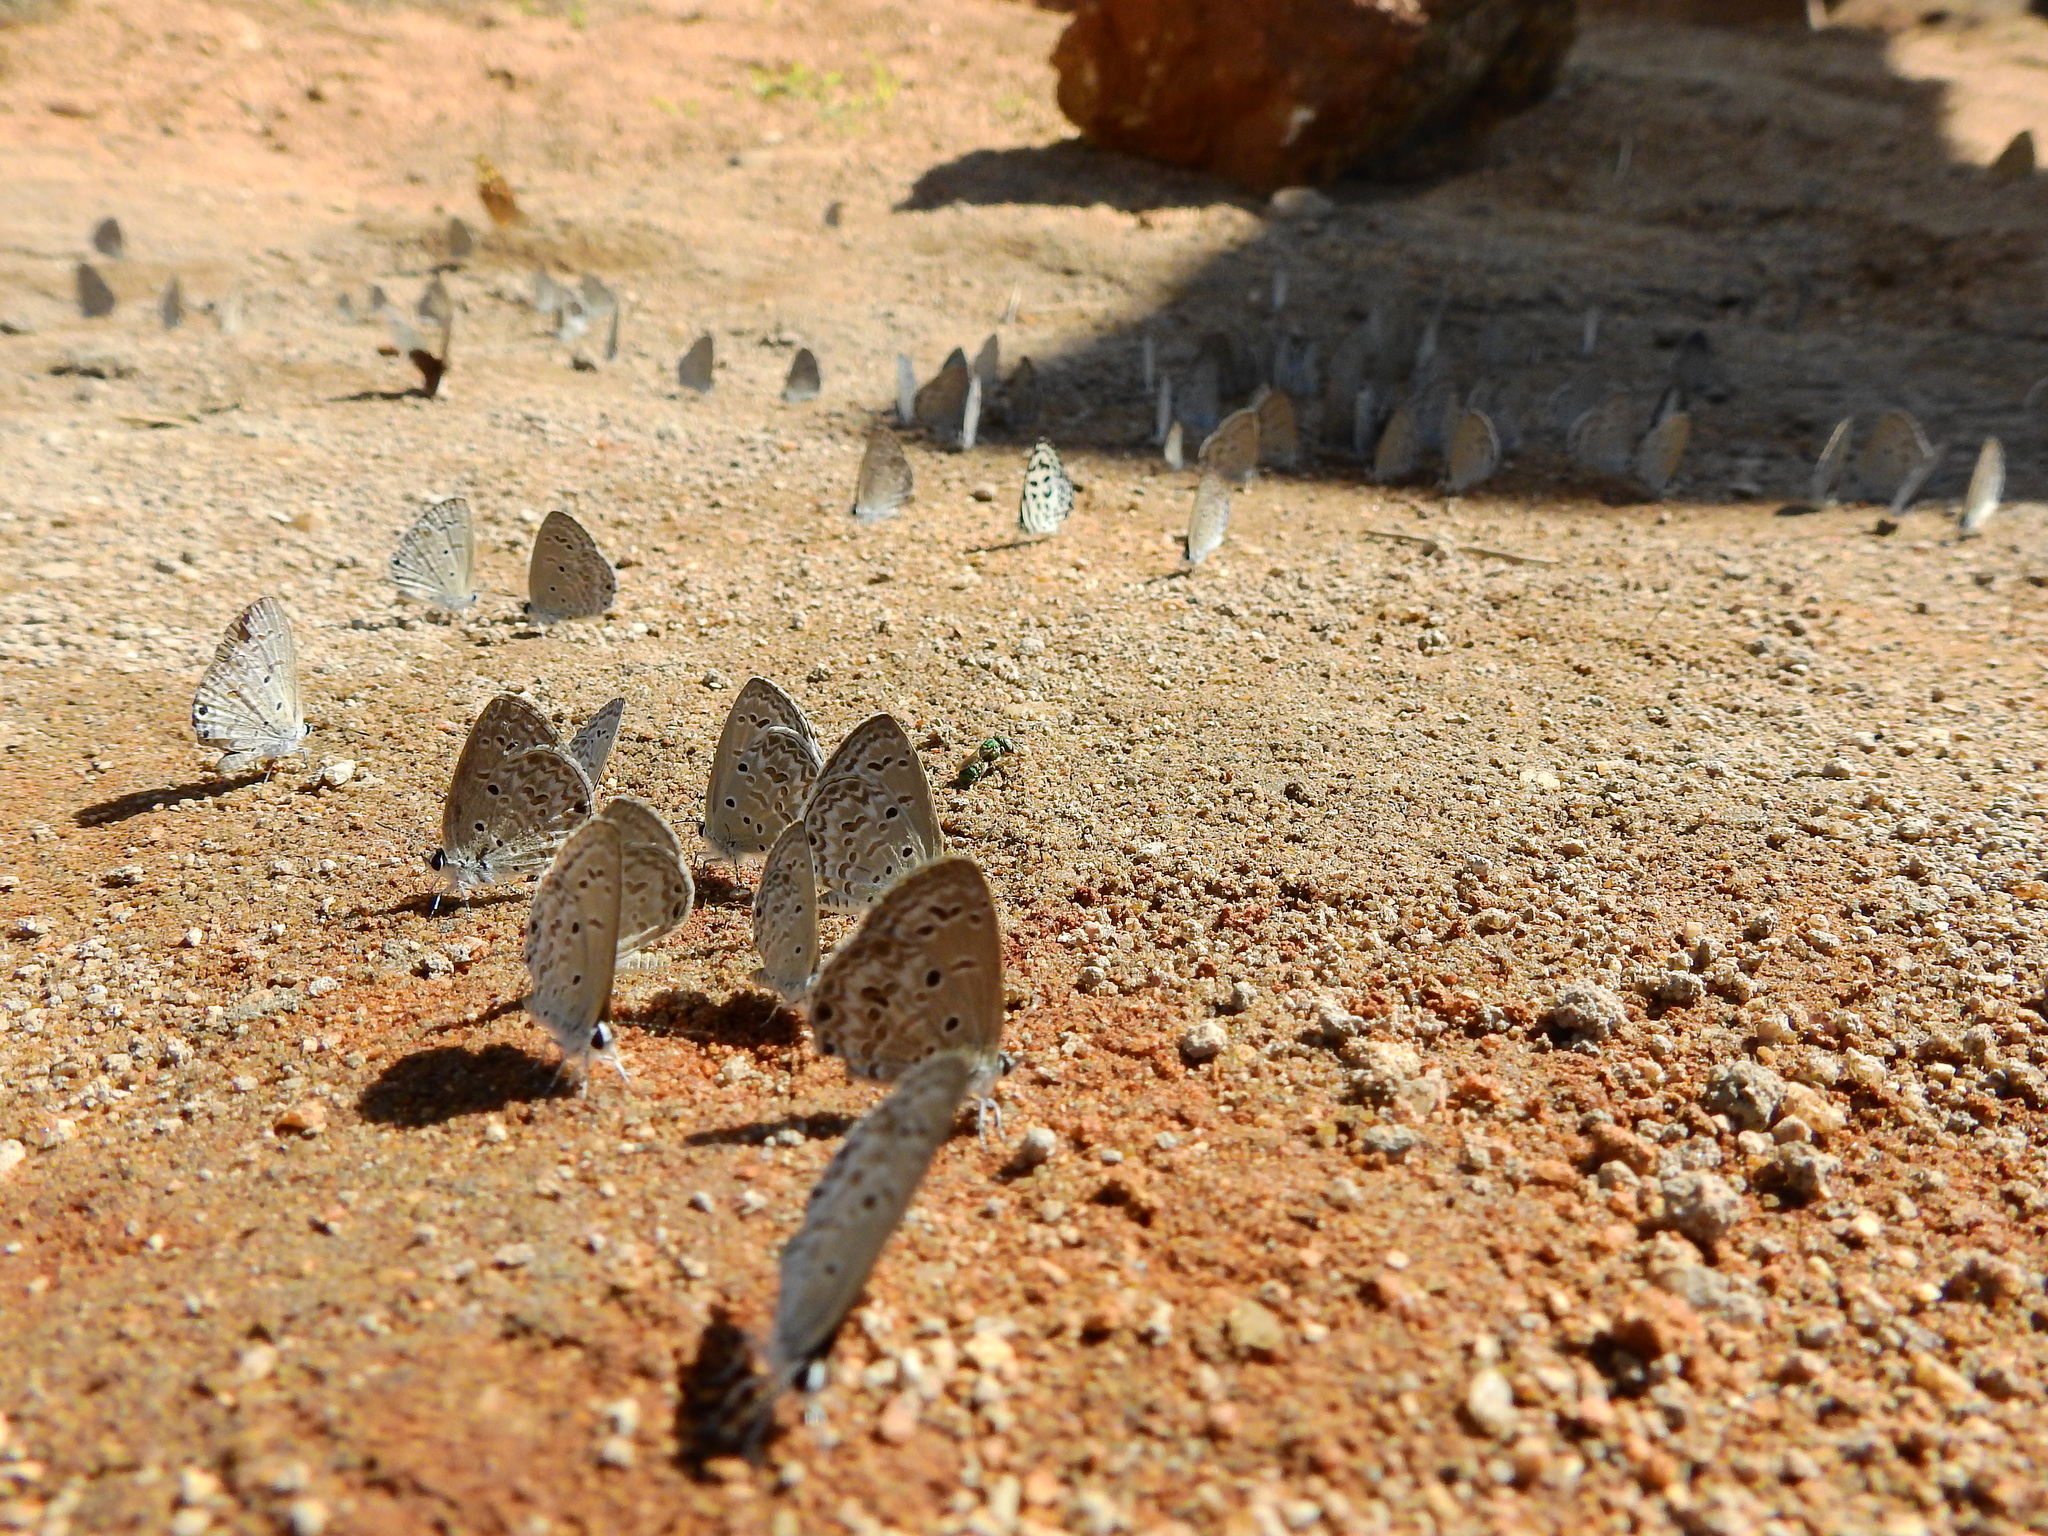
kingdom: Animalia
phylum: Arthropoda
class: Insecta
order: Lepidoptera
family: Lycaenidae
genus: Chilades
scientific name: Chilades laius
